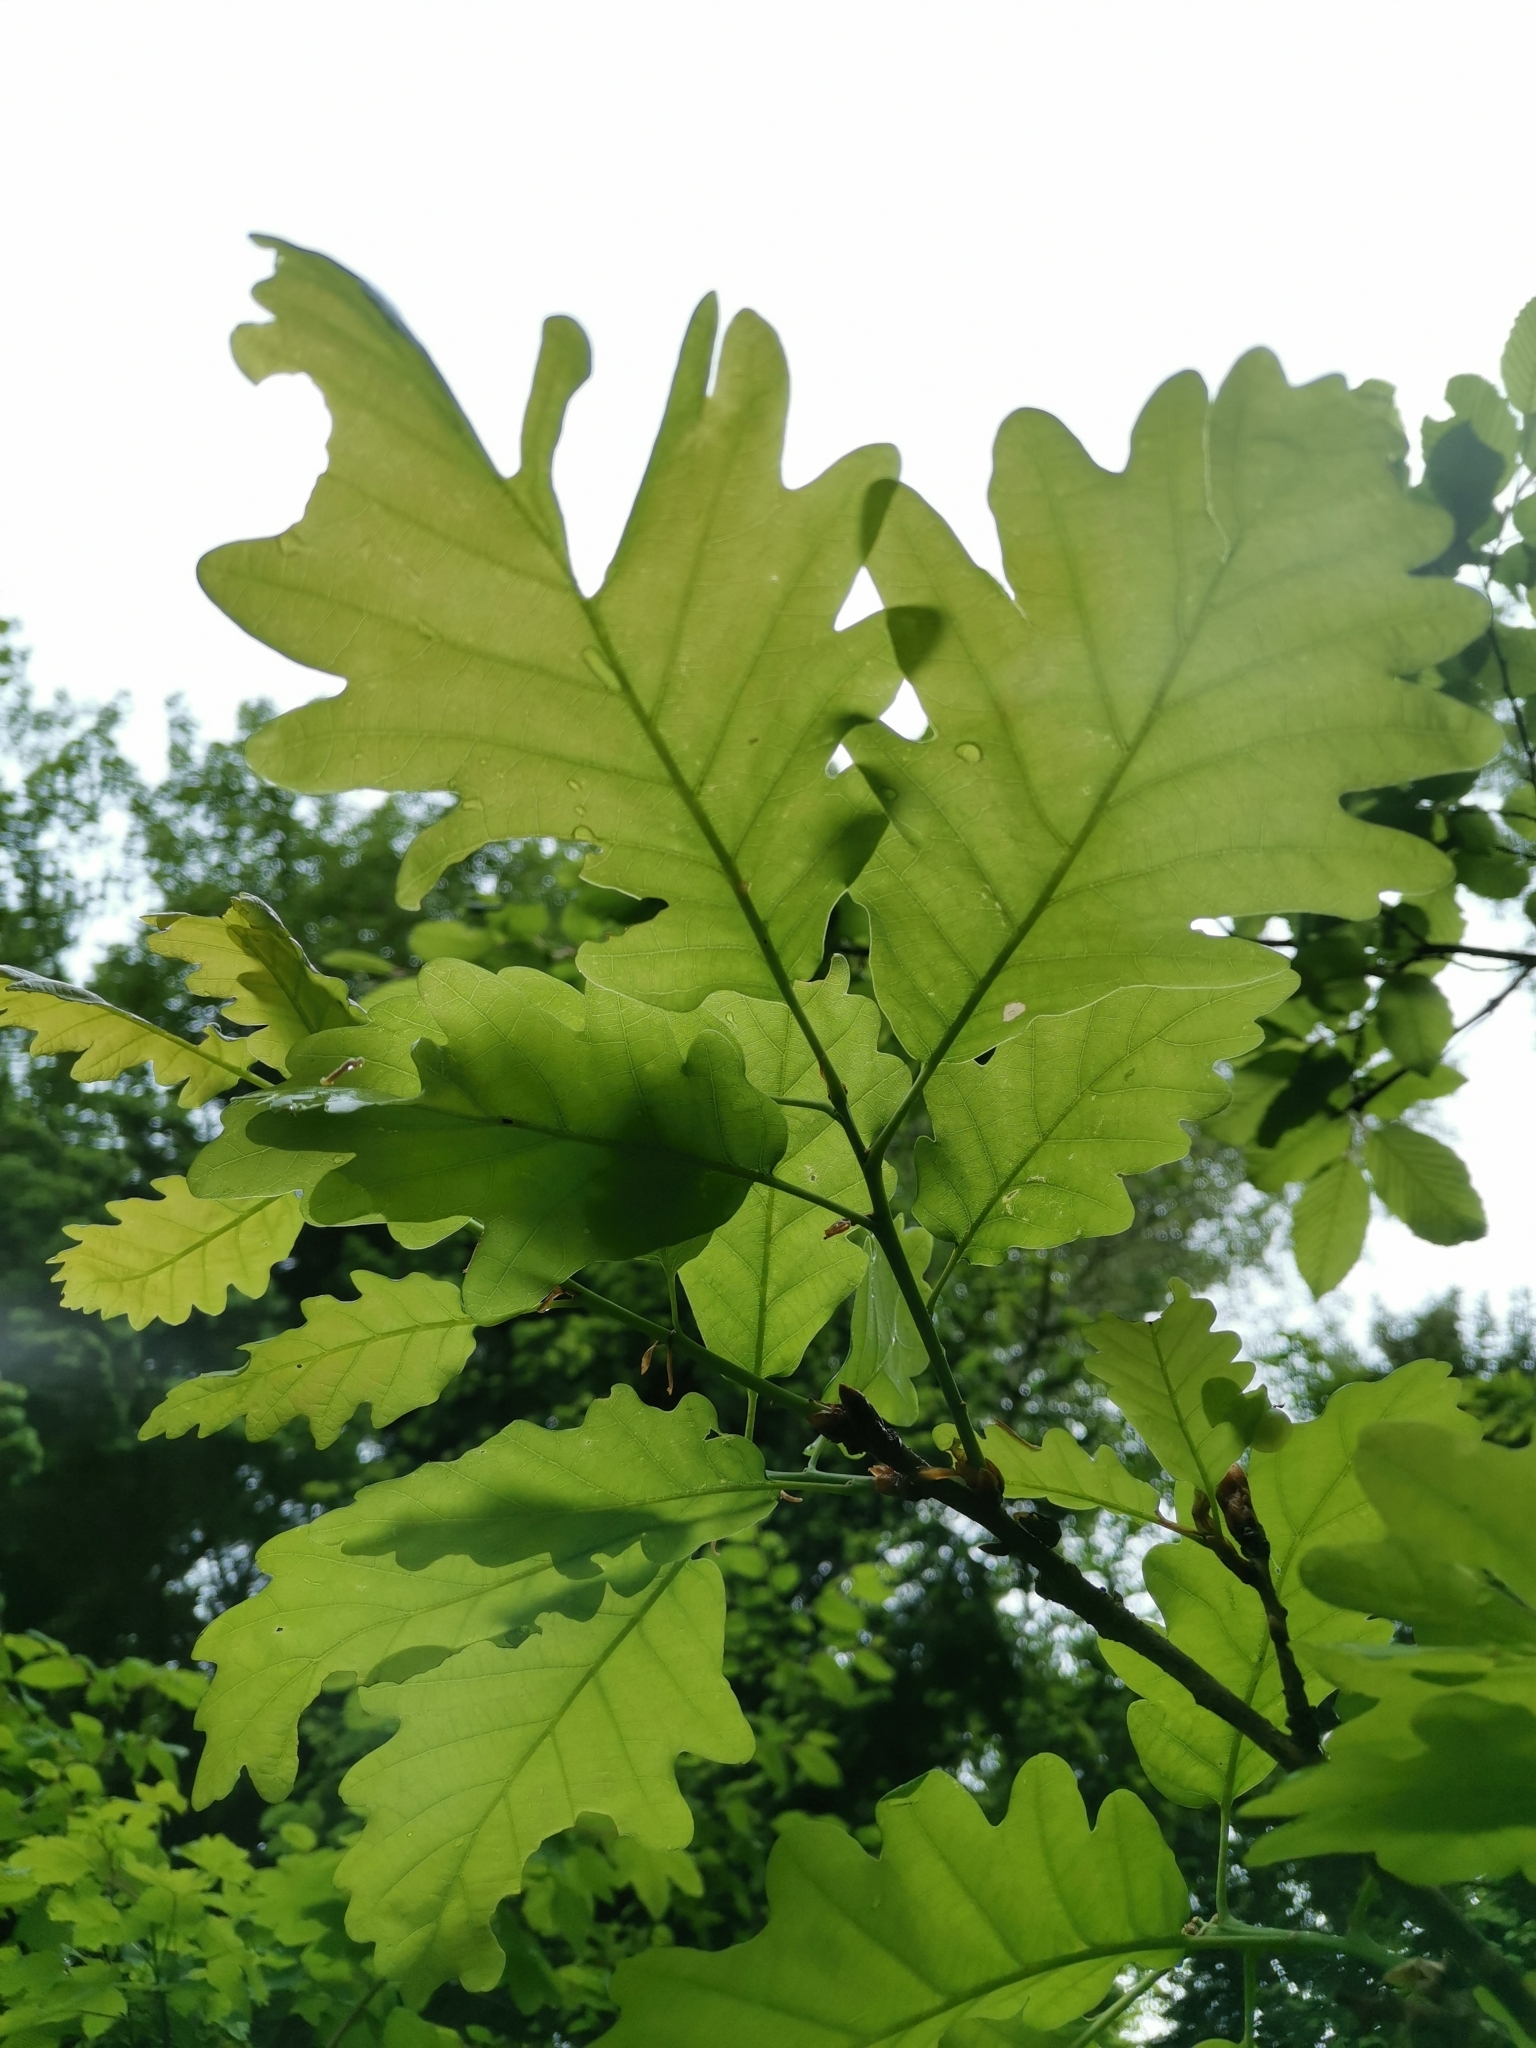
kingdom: Plantae
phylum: Tracheophyta
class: Magnoliopsida
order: Fagales
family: Fagaceae
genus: Quercus
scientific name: Quercus petraea
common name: Sessile oak
